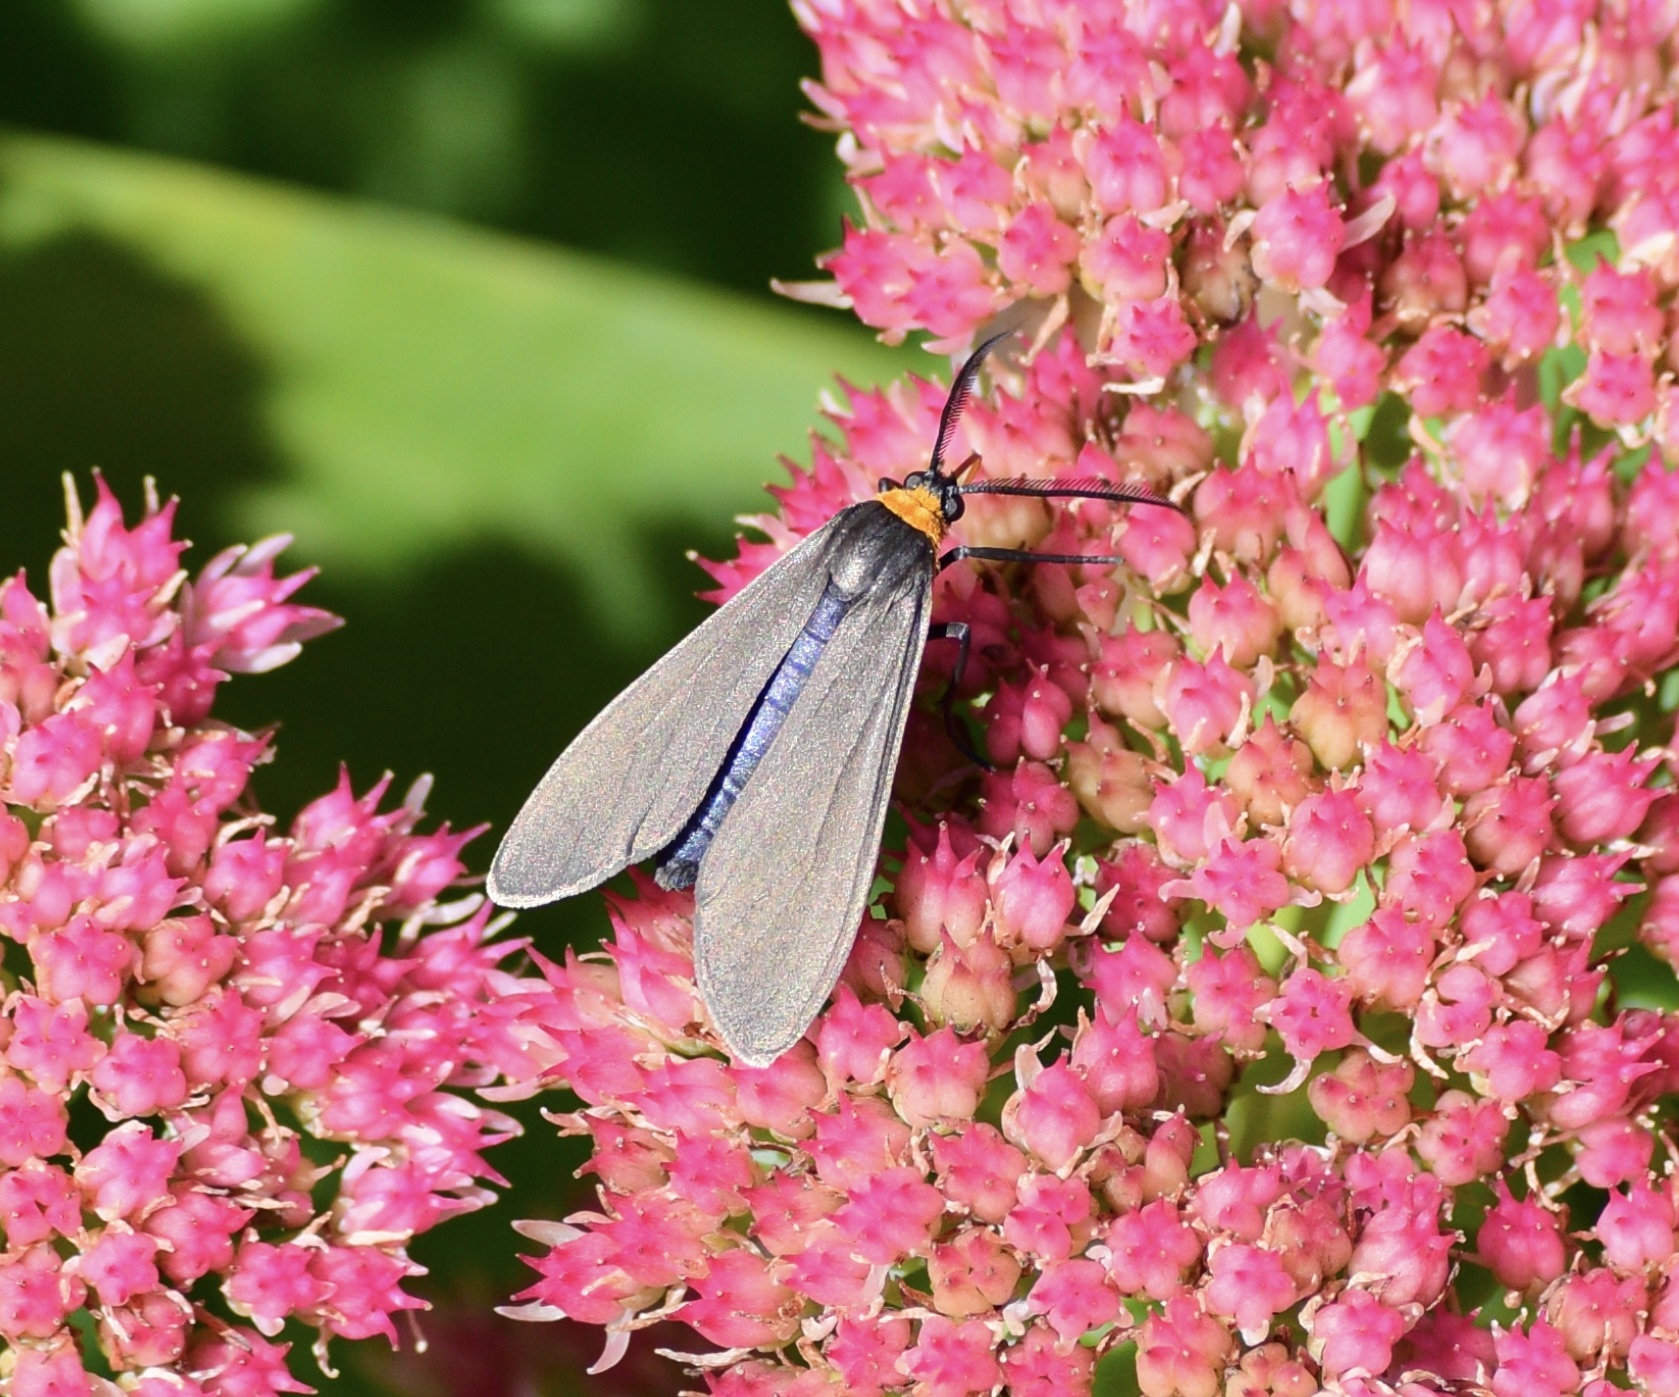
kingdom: Animalia
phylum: Arthropoda
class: Insecta
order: Lepidoptera
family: Erebidae
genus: Cisseps
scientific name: Cisseps fulvicollis
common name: Yellow-collared scape moth
